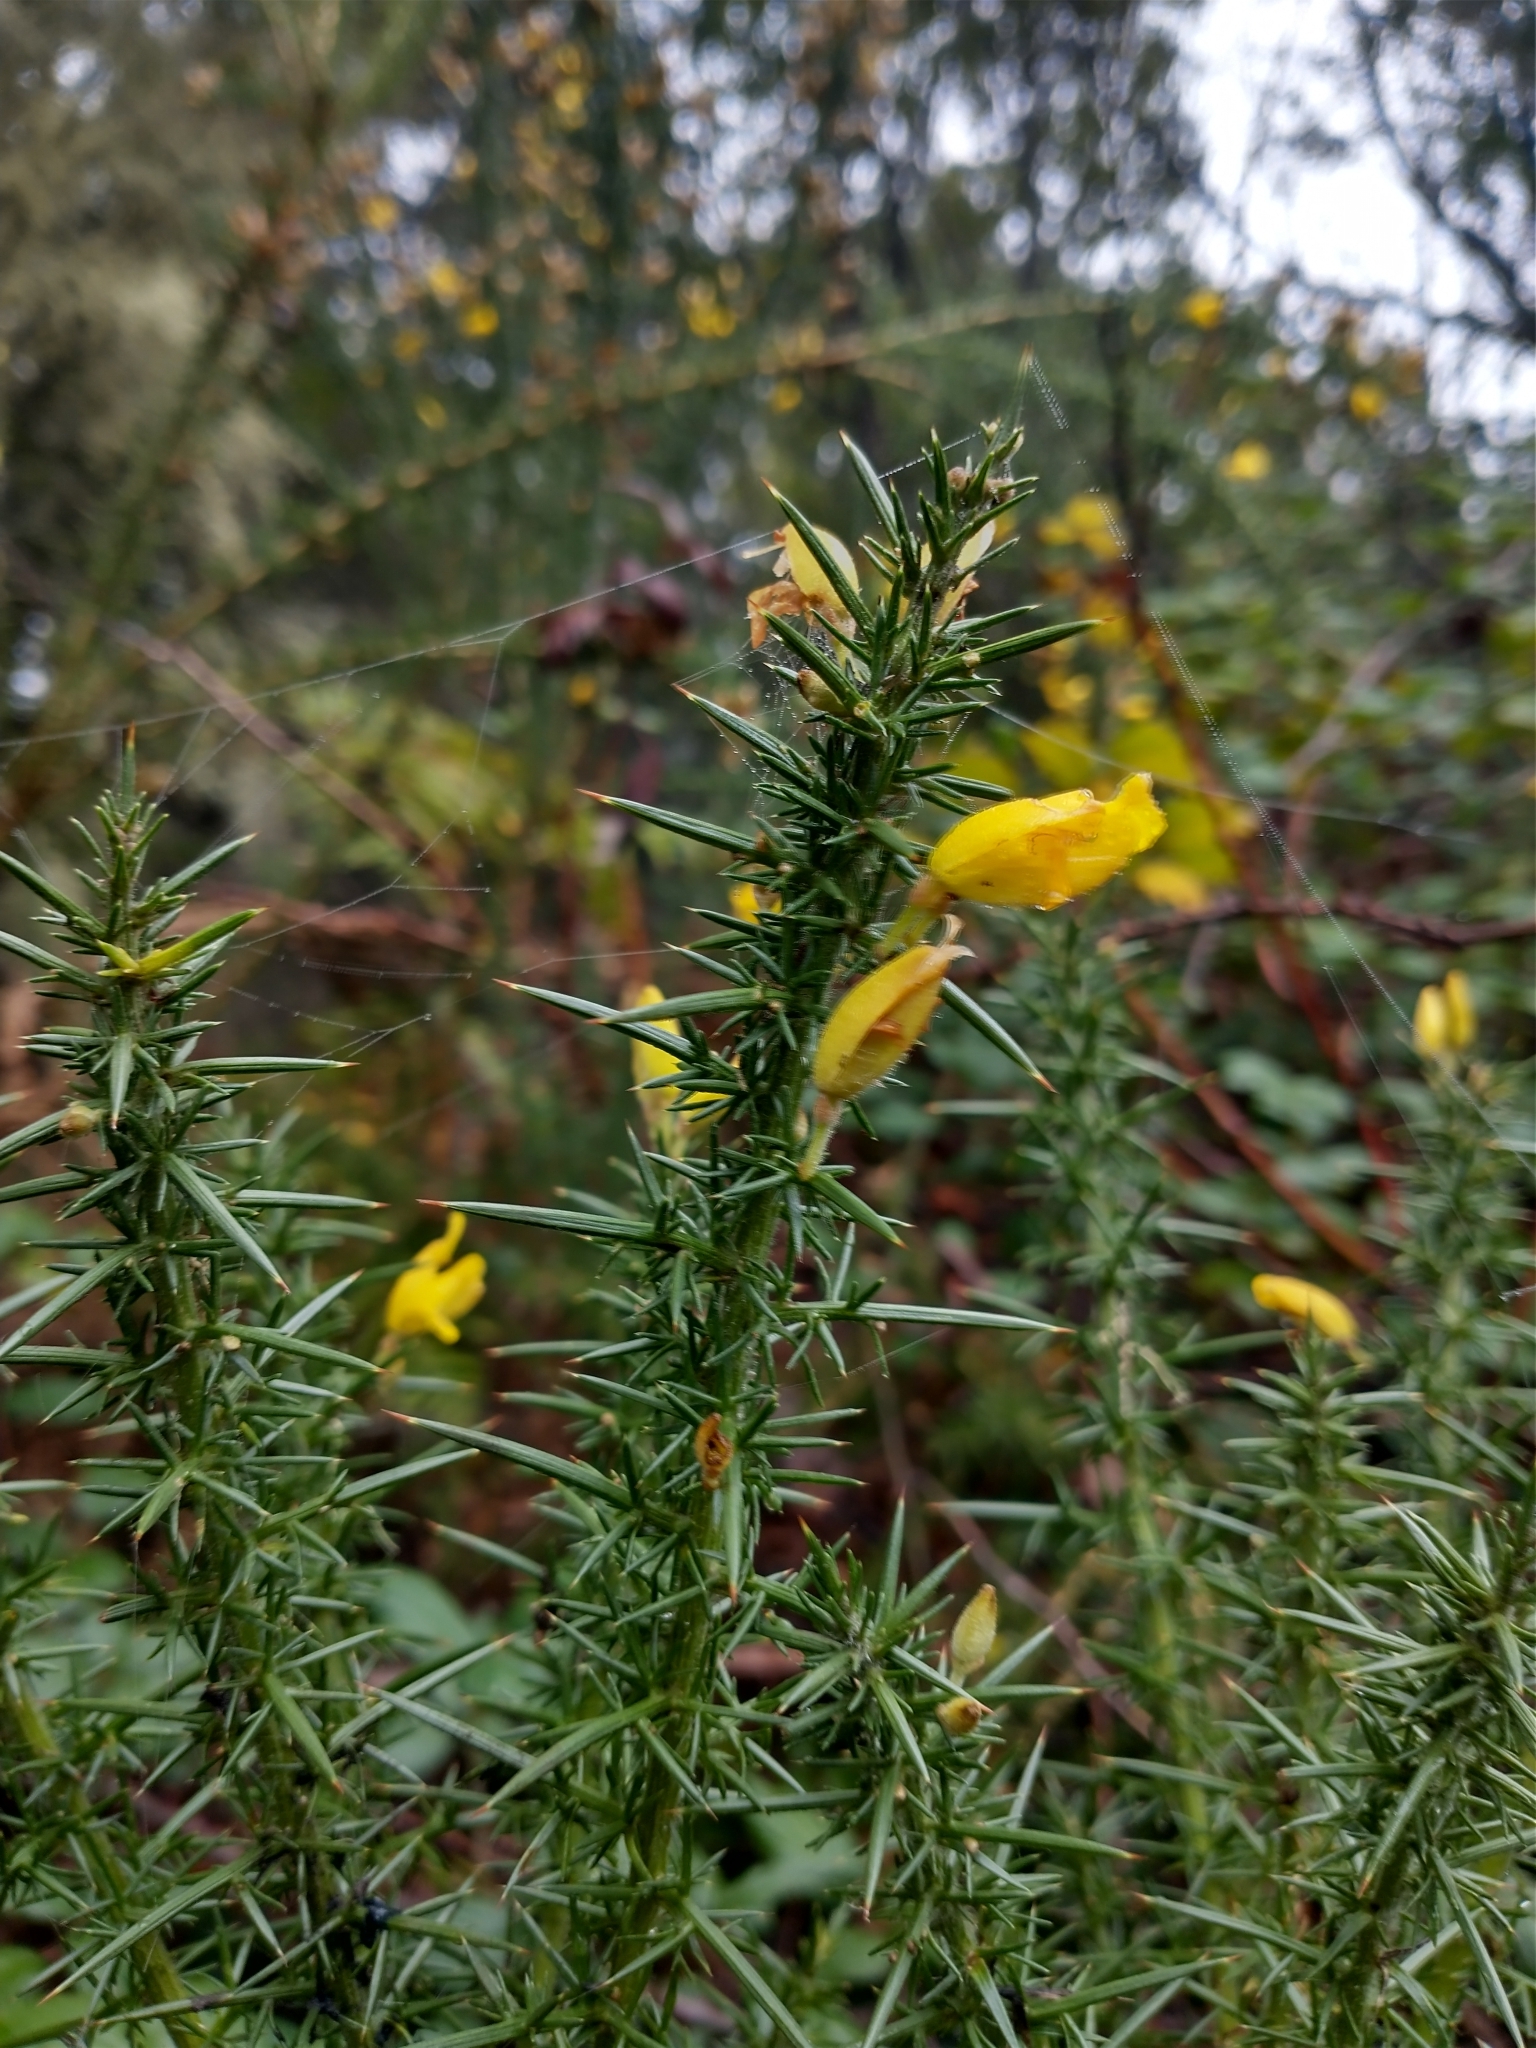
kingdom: Plantae
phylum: Tracheophyta
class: Magnoliopsida
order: Fabales
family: Fabaceae
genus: Ulex
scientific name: Ulex europaeus
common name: Common gorse
